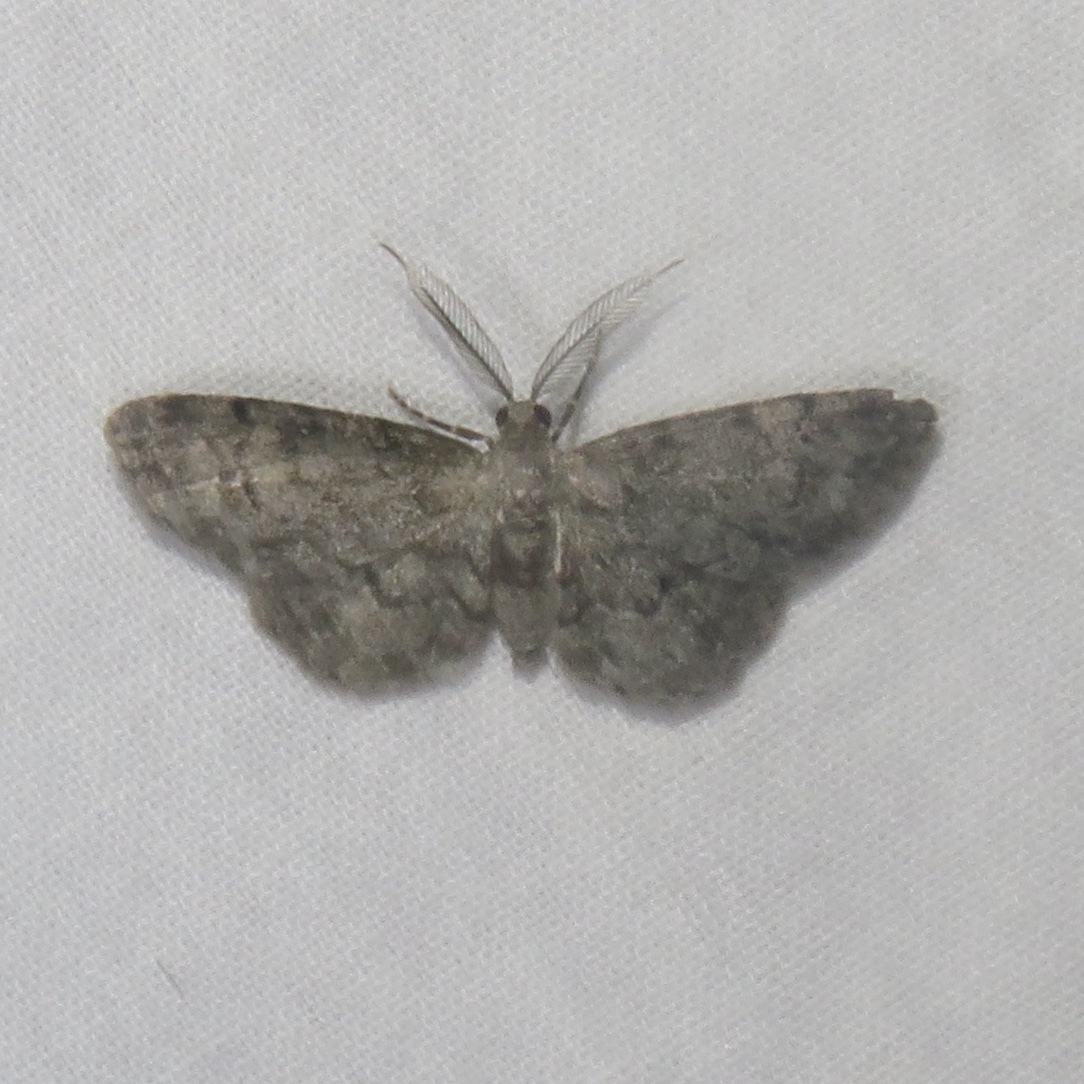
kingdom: Animalia
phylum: Arthropoda
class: Insecta
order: Lepidoptera
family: Geometridae
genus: Glenoides
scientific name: Glenoides texanaria
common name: Texas gray
